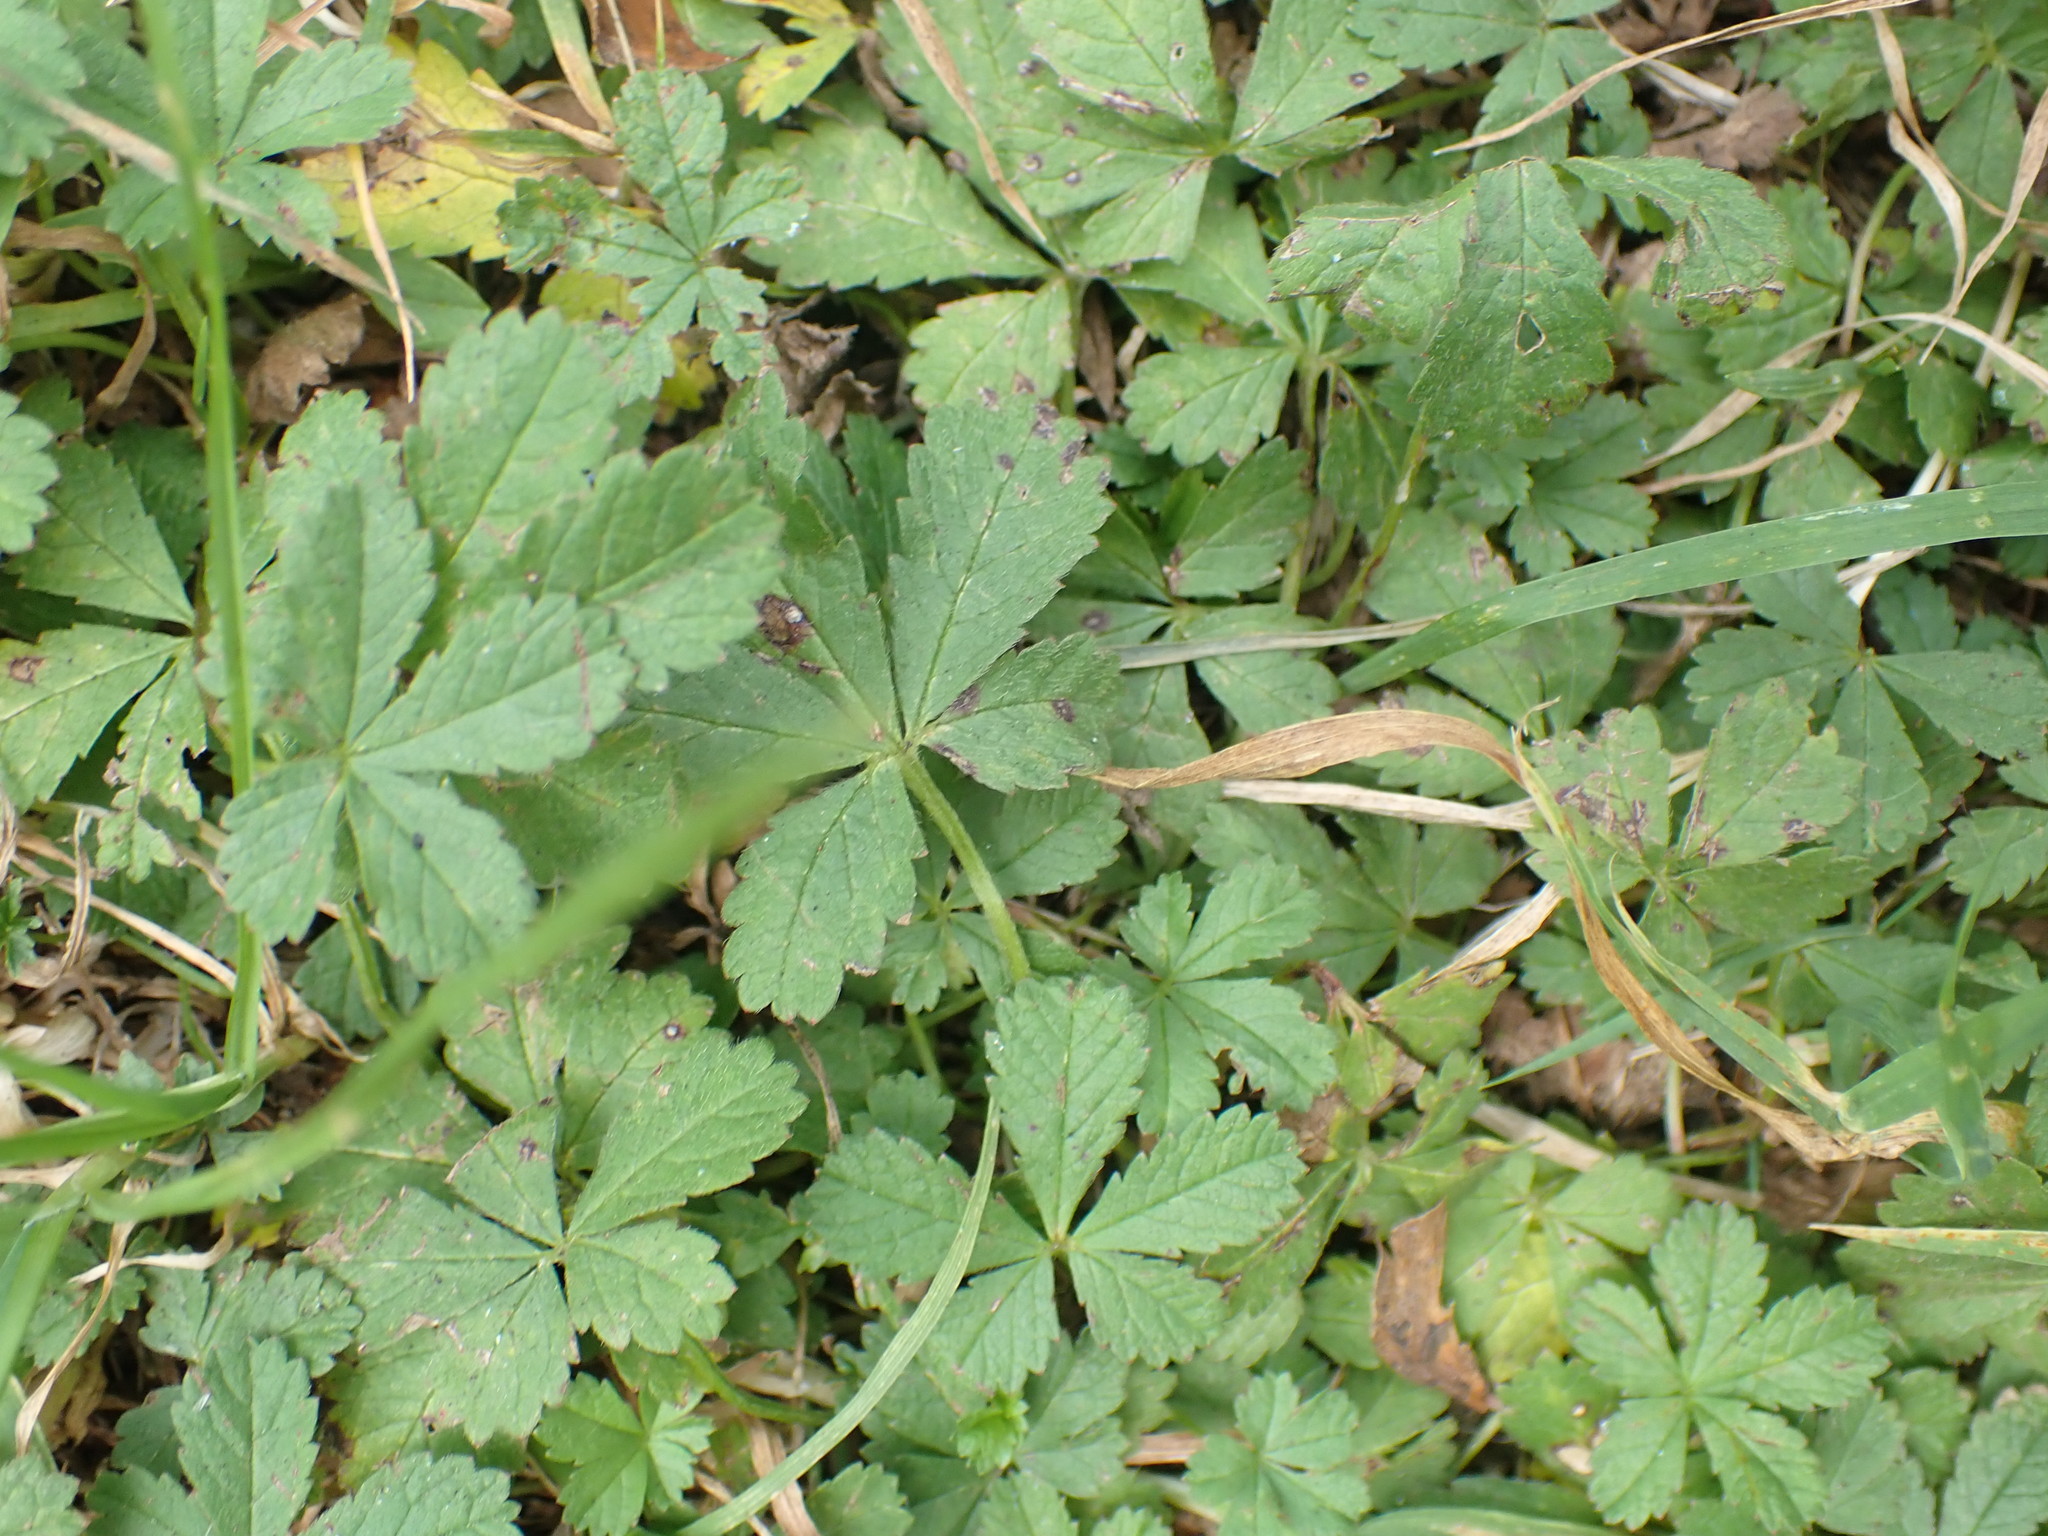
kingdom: Plantae
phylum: Tracheophyta
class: Magnoliopsida
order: Rosales
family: Rosaceae
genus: Potentilla
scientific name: Potentilla reptans
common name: Creeping cinquefoil
